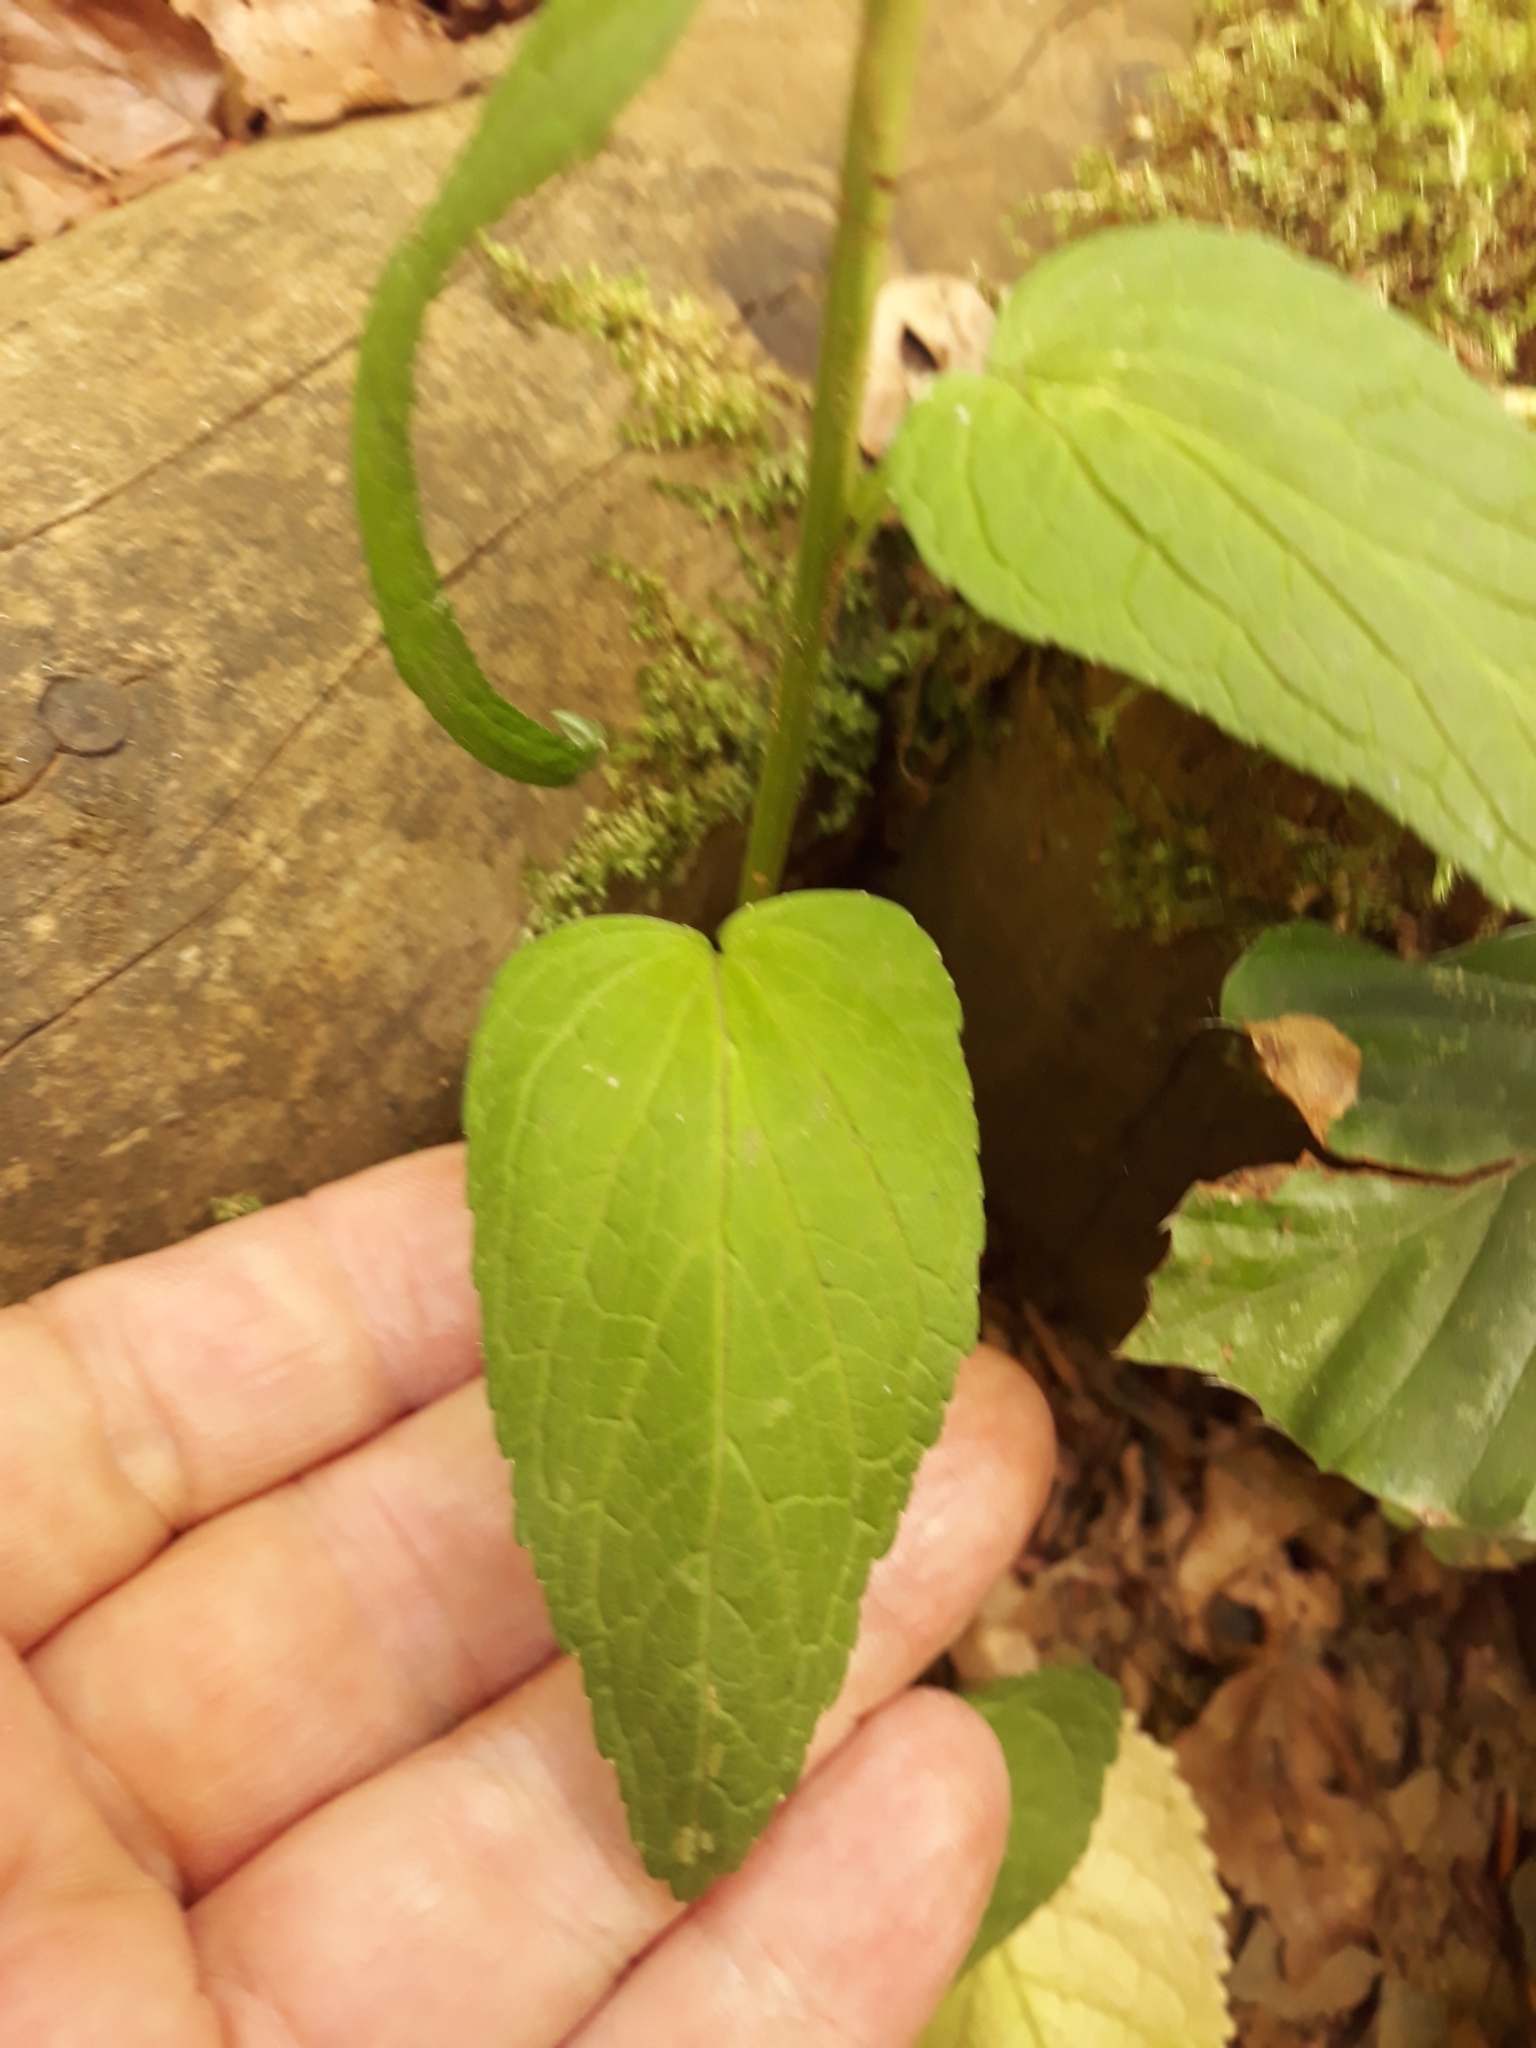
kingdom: Plantae
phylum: Tracheophyta
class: Magnoliopsida
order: Asterales
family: Campanulaceae
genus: Phyteuma
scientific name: Phyteuma spicatum
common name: Spiked rampion
